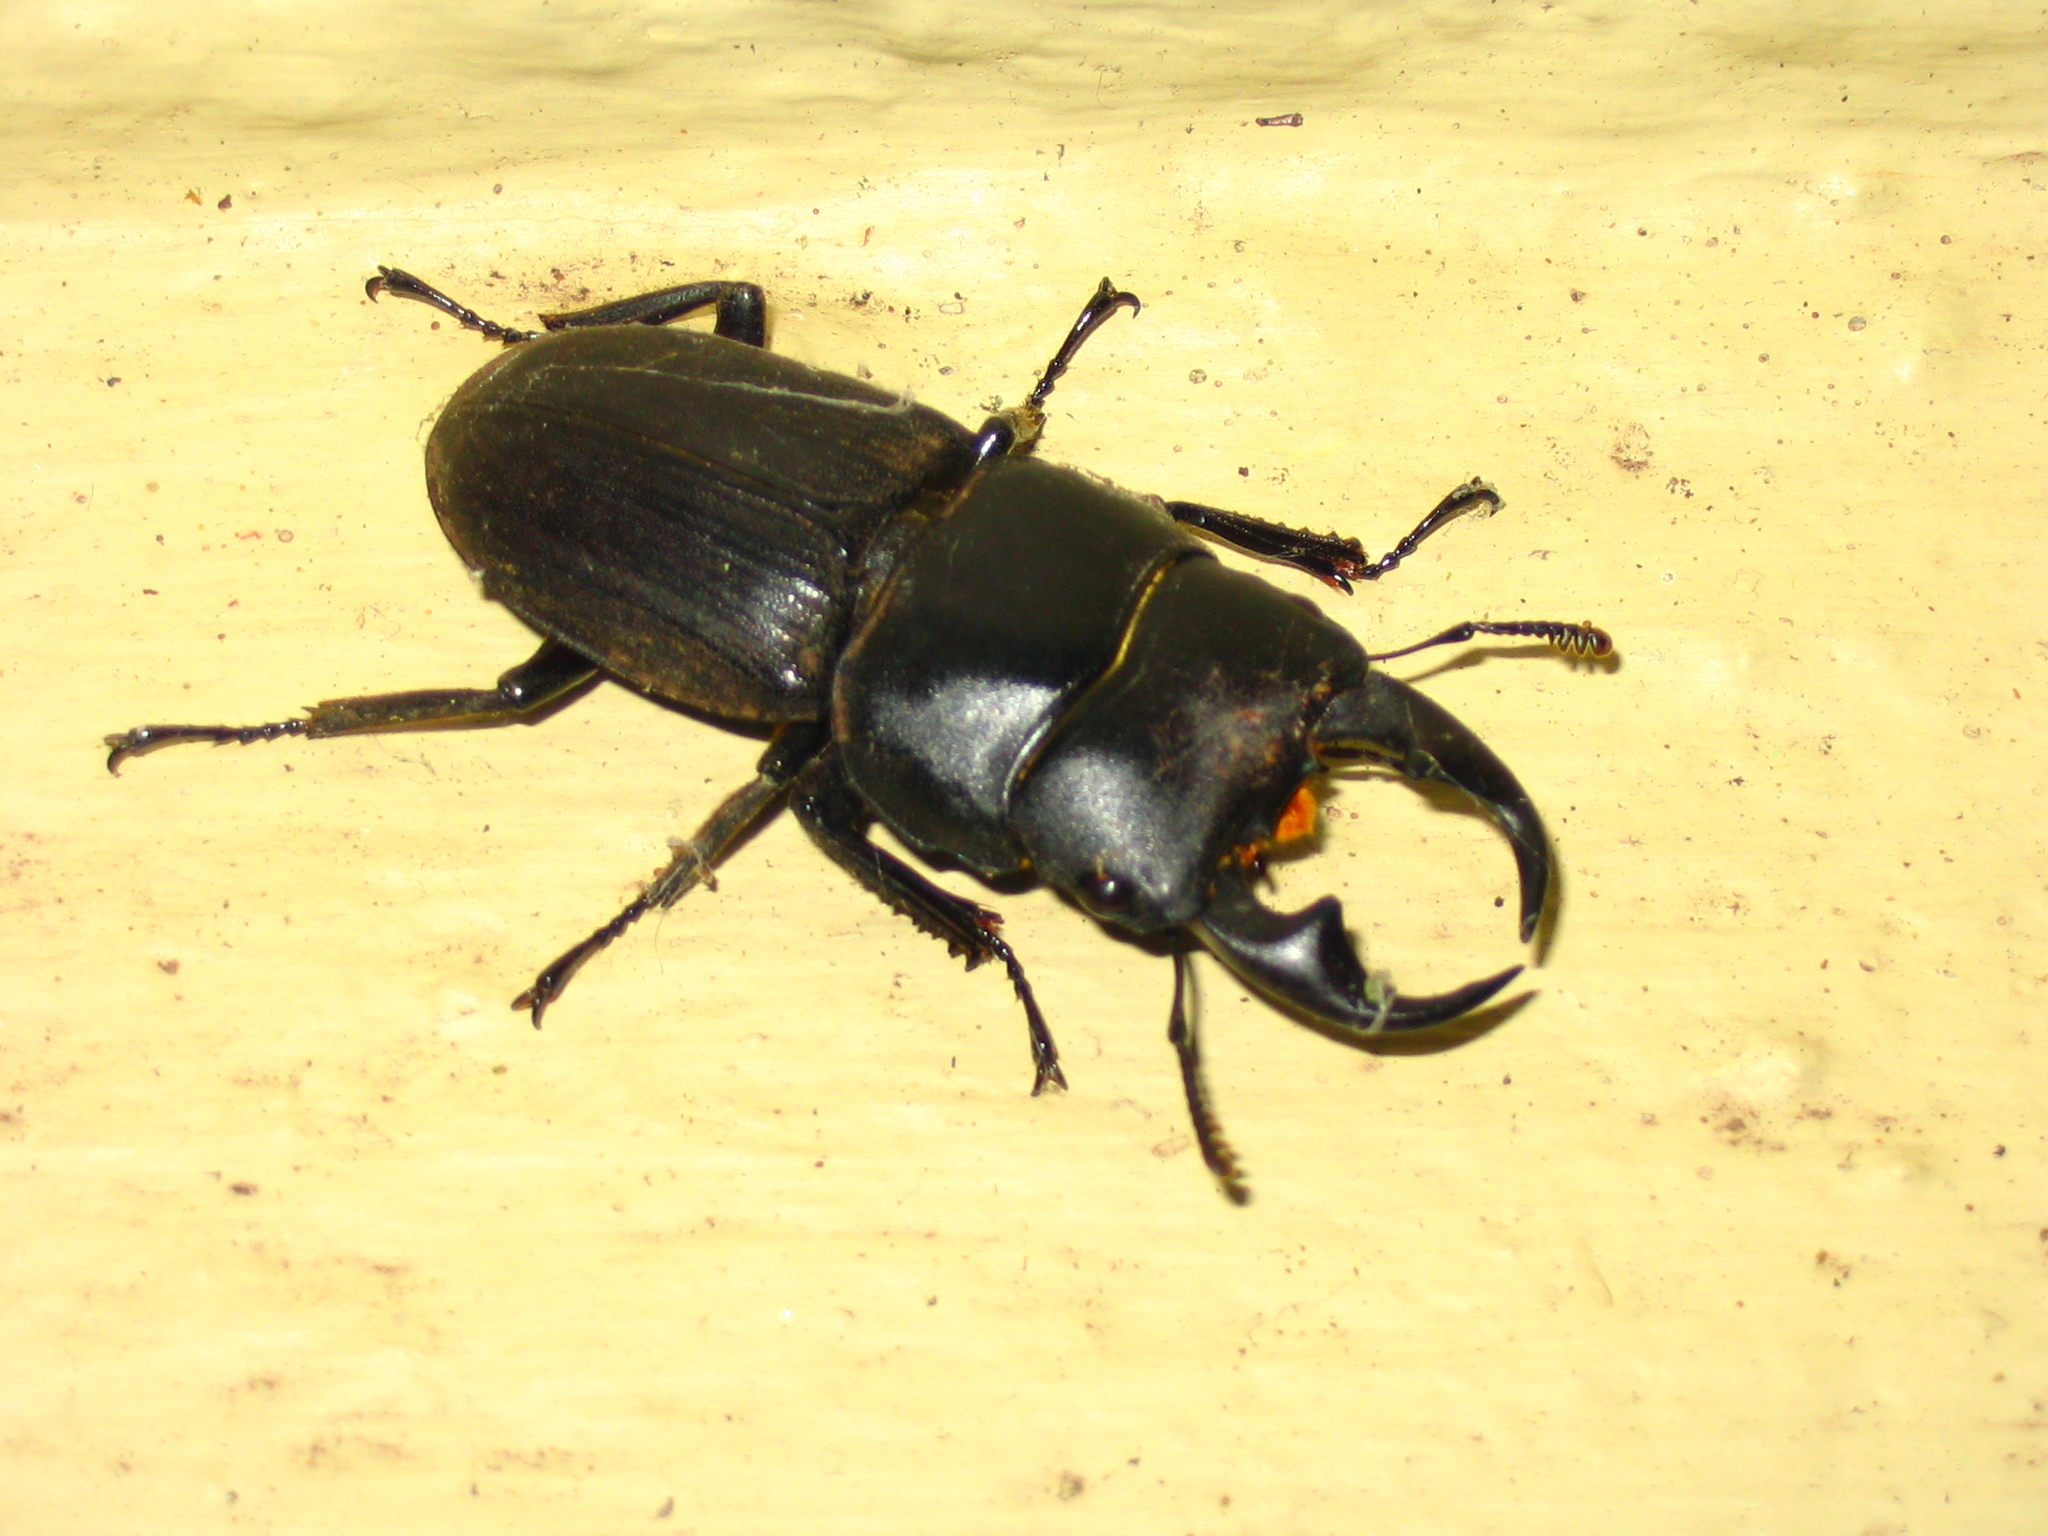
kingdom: Animalia
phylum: Arthropoda
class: Insecta
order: Coleoptera
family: Lucanidae
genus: Dorcus
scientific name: Dorcus ritsemae
